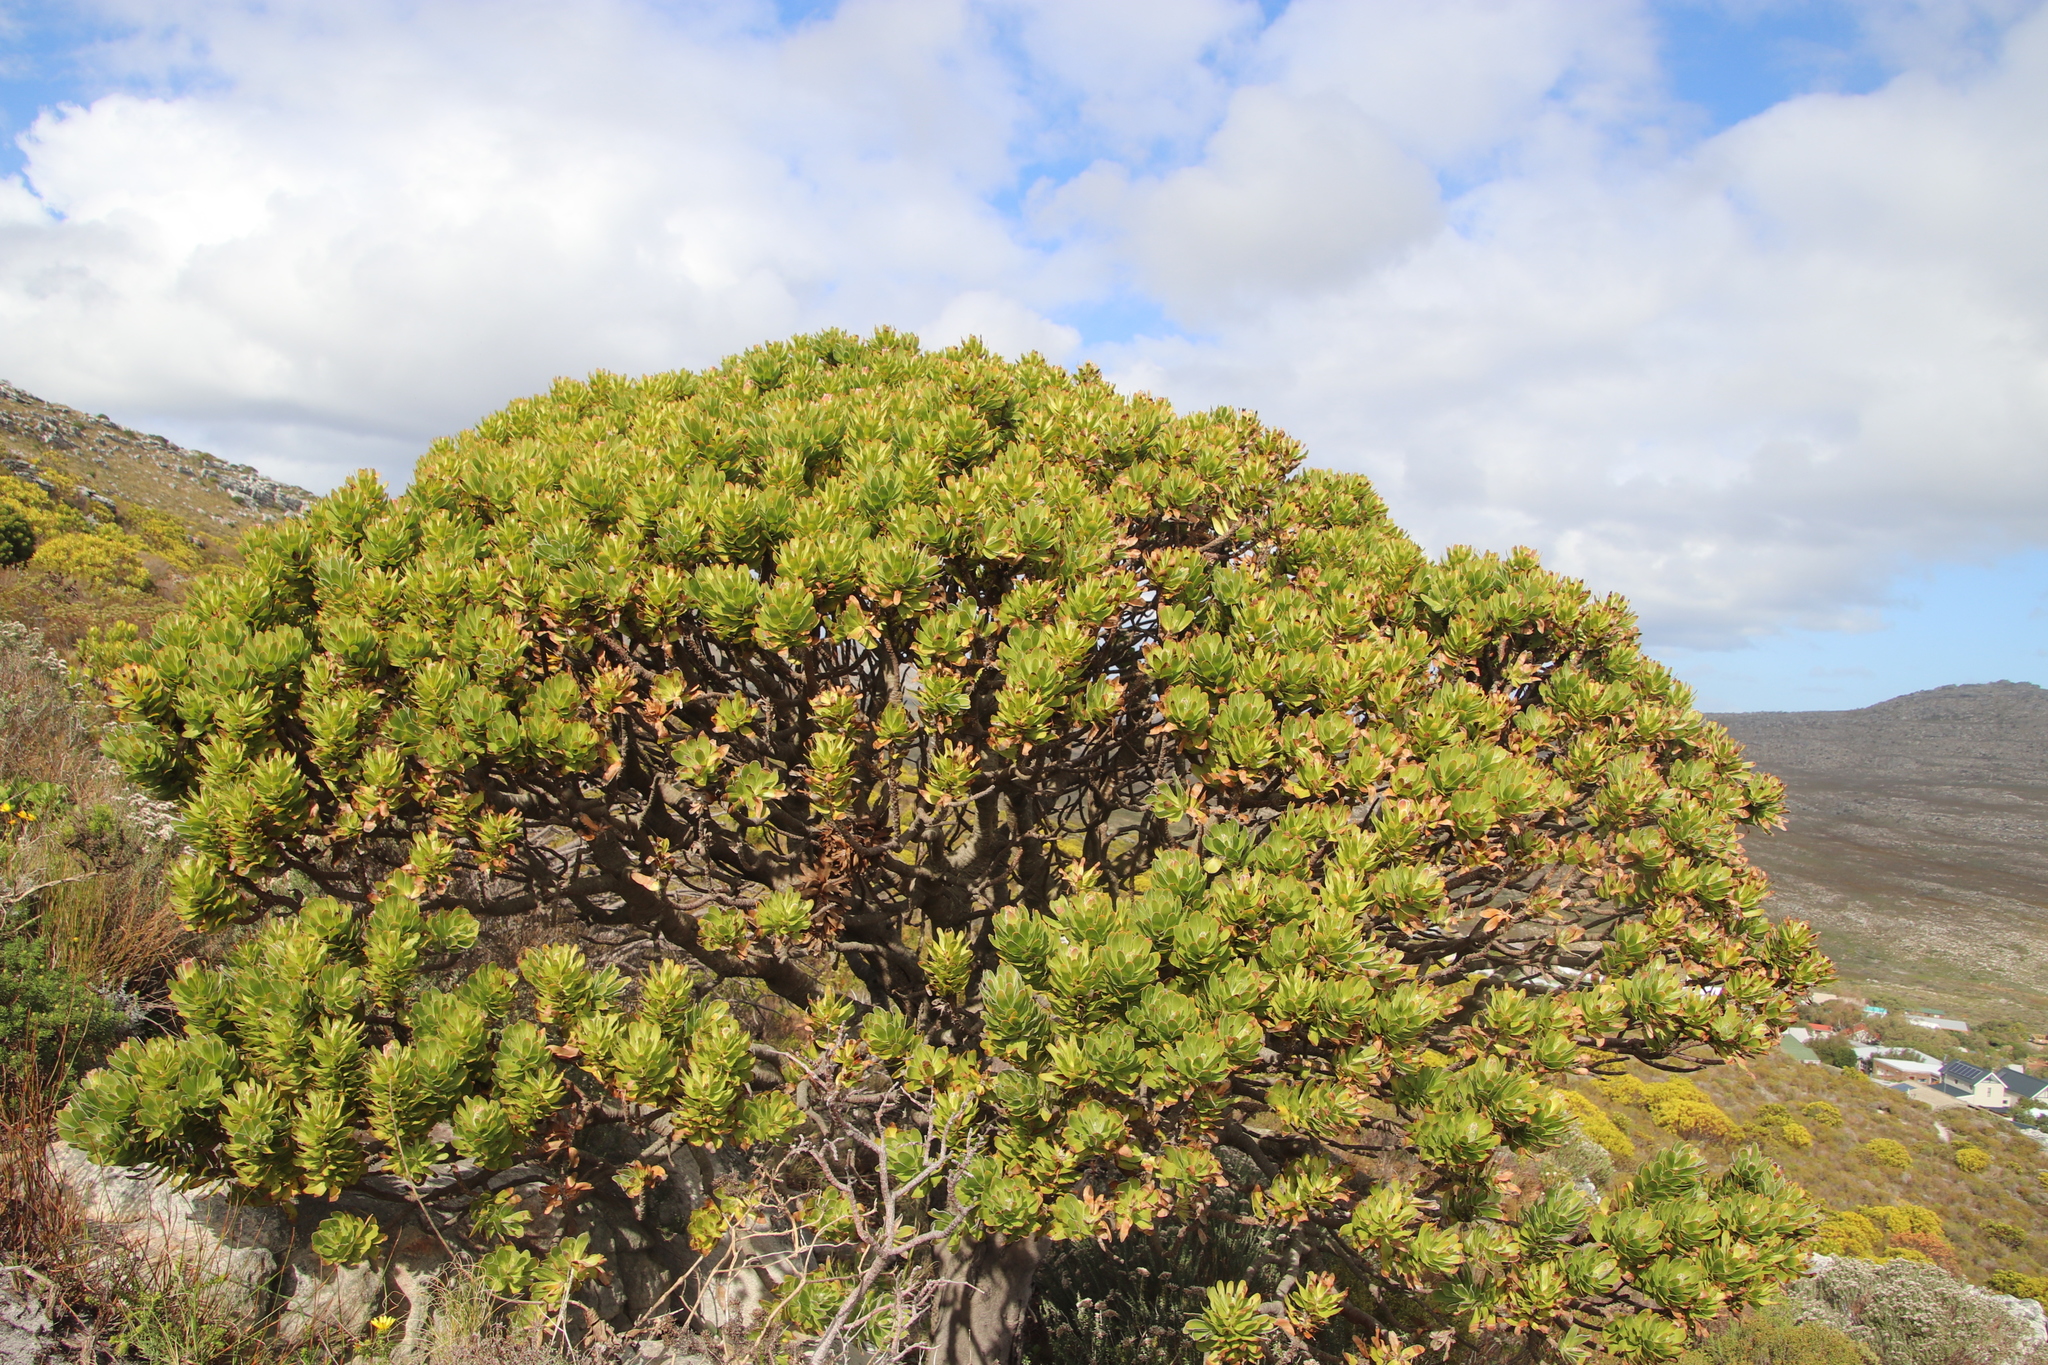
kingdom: Plantae
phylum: Tracheophyta
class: Magnoliopsida
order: Proteales
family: Proteaceae
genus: Mimetes
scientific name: Mimetes fimbriifolius
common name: Fringed bottlebrush
